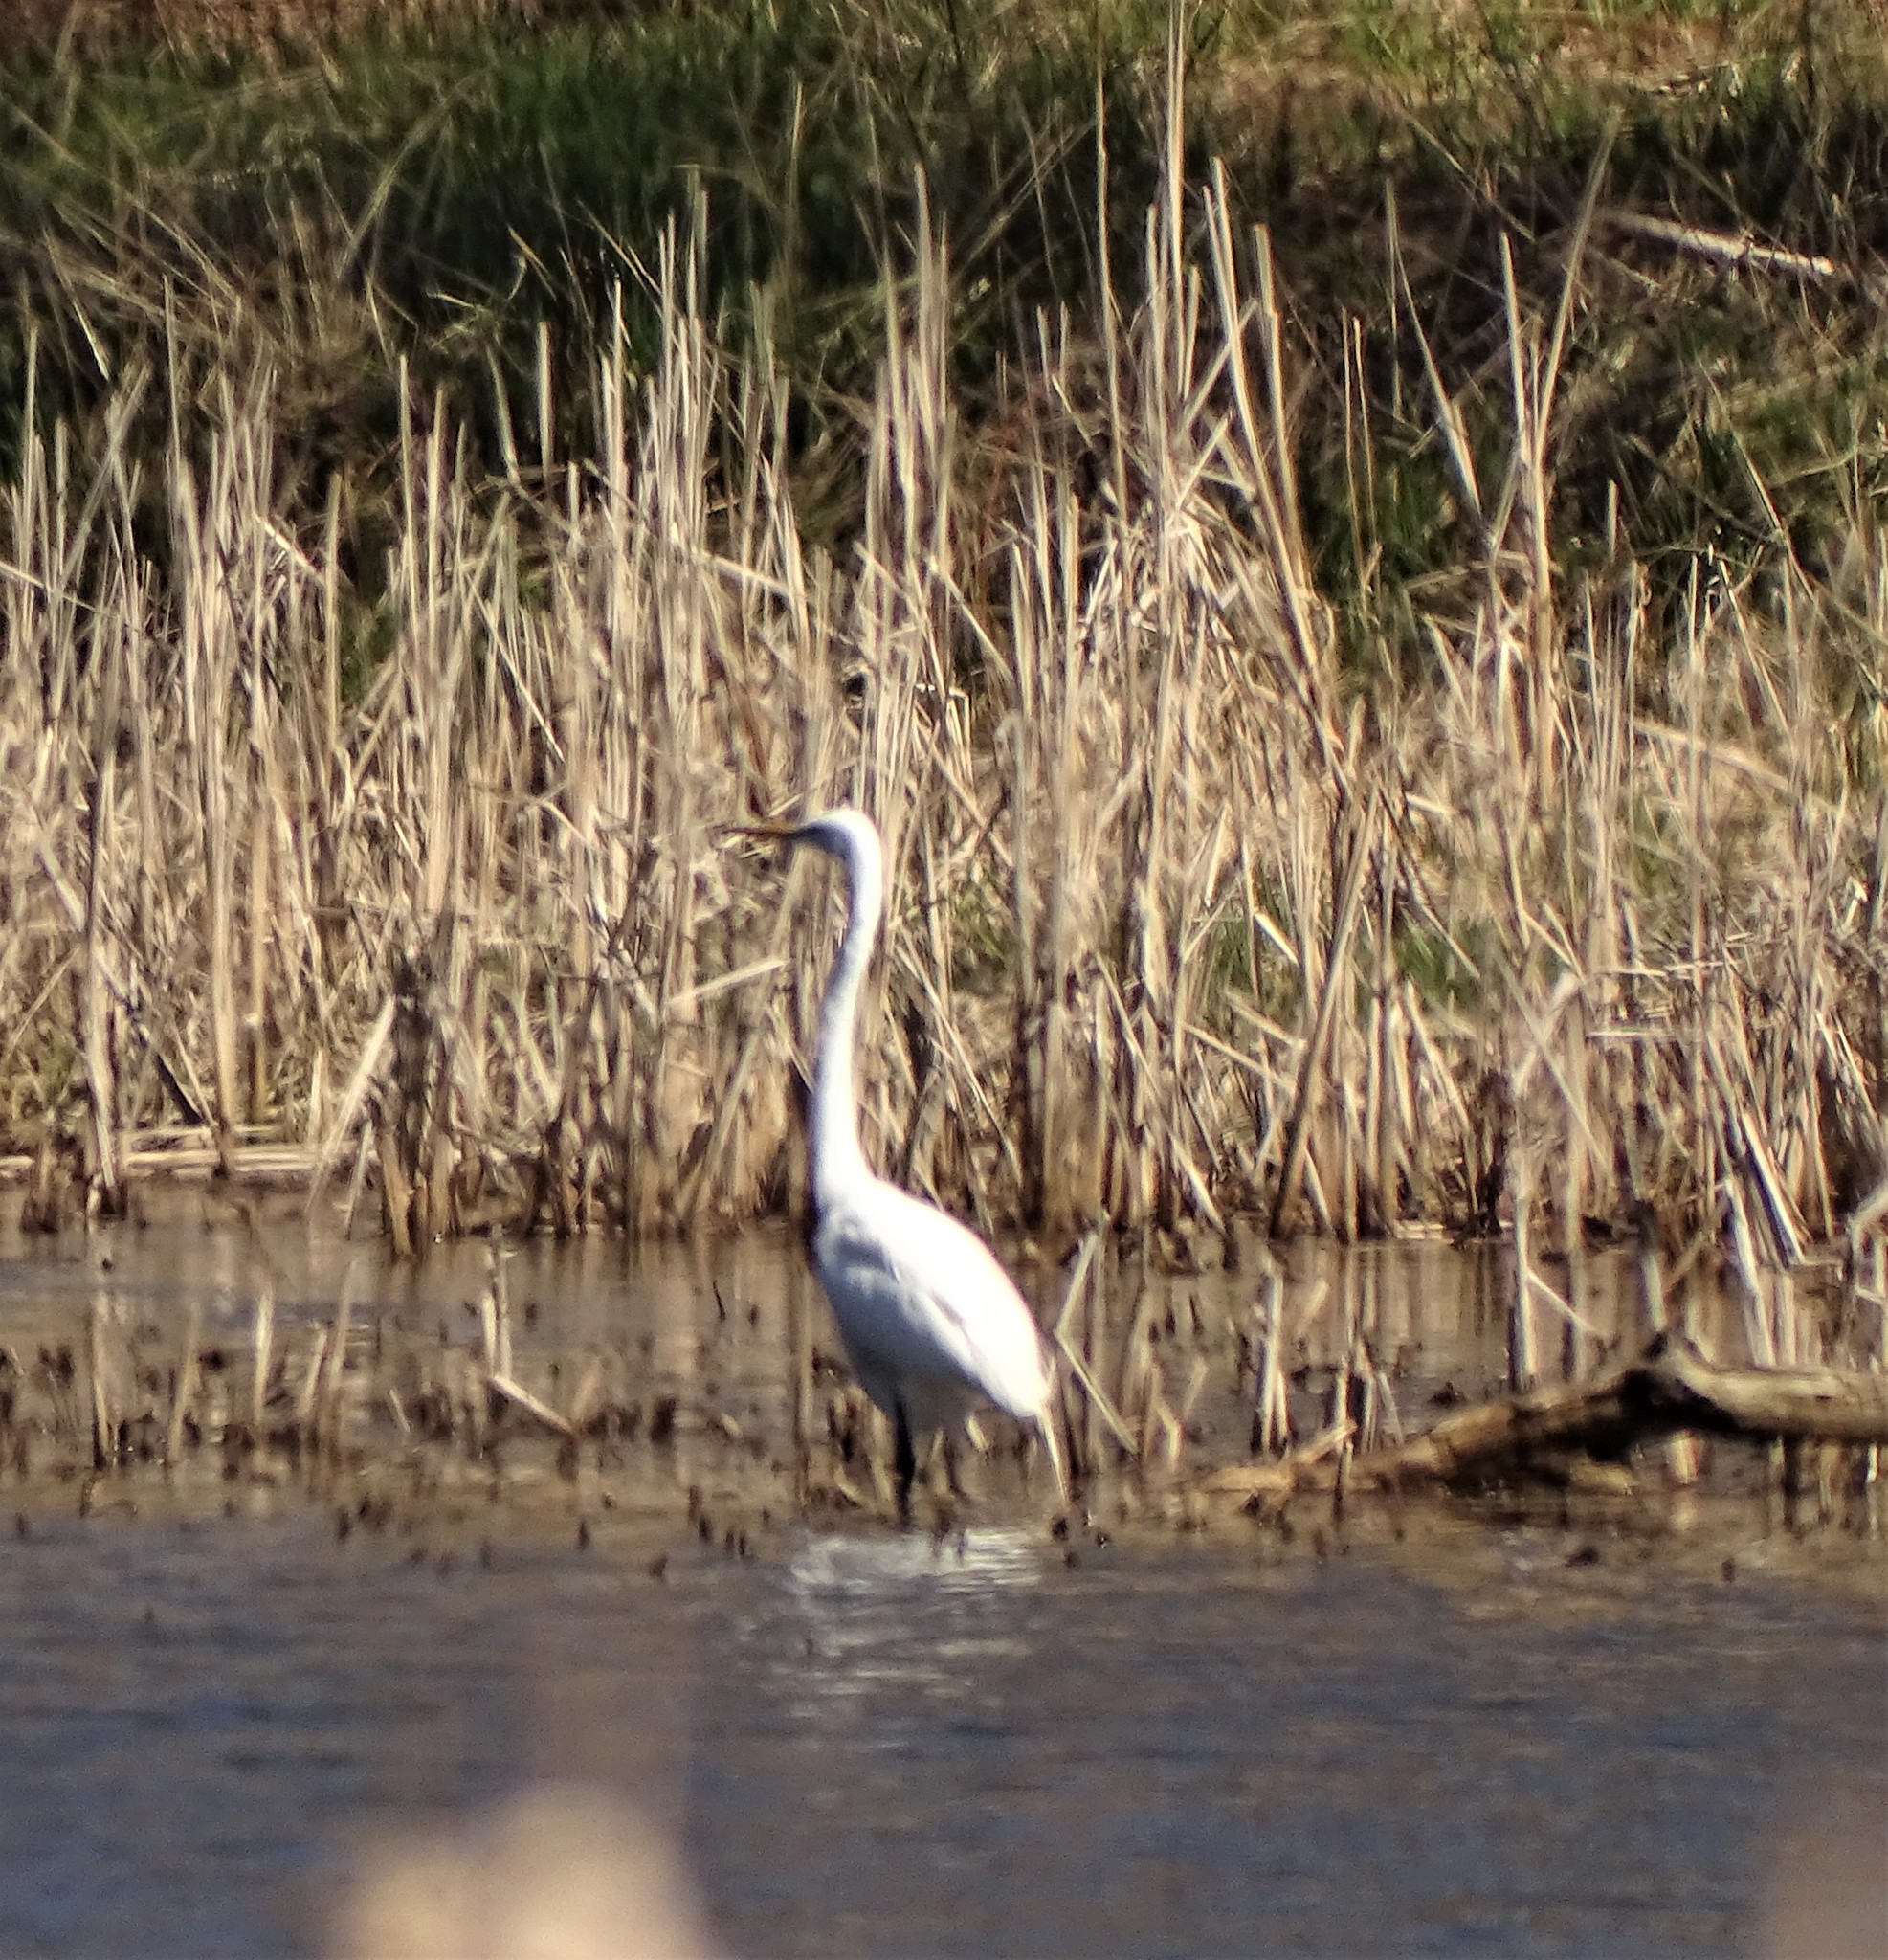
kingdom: Animalia
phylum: Chordata
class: Aves
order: Pelecaniformes
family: Ardeidae
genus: Ardea
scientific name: Ardea alba
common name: Great egret
